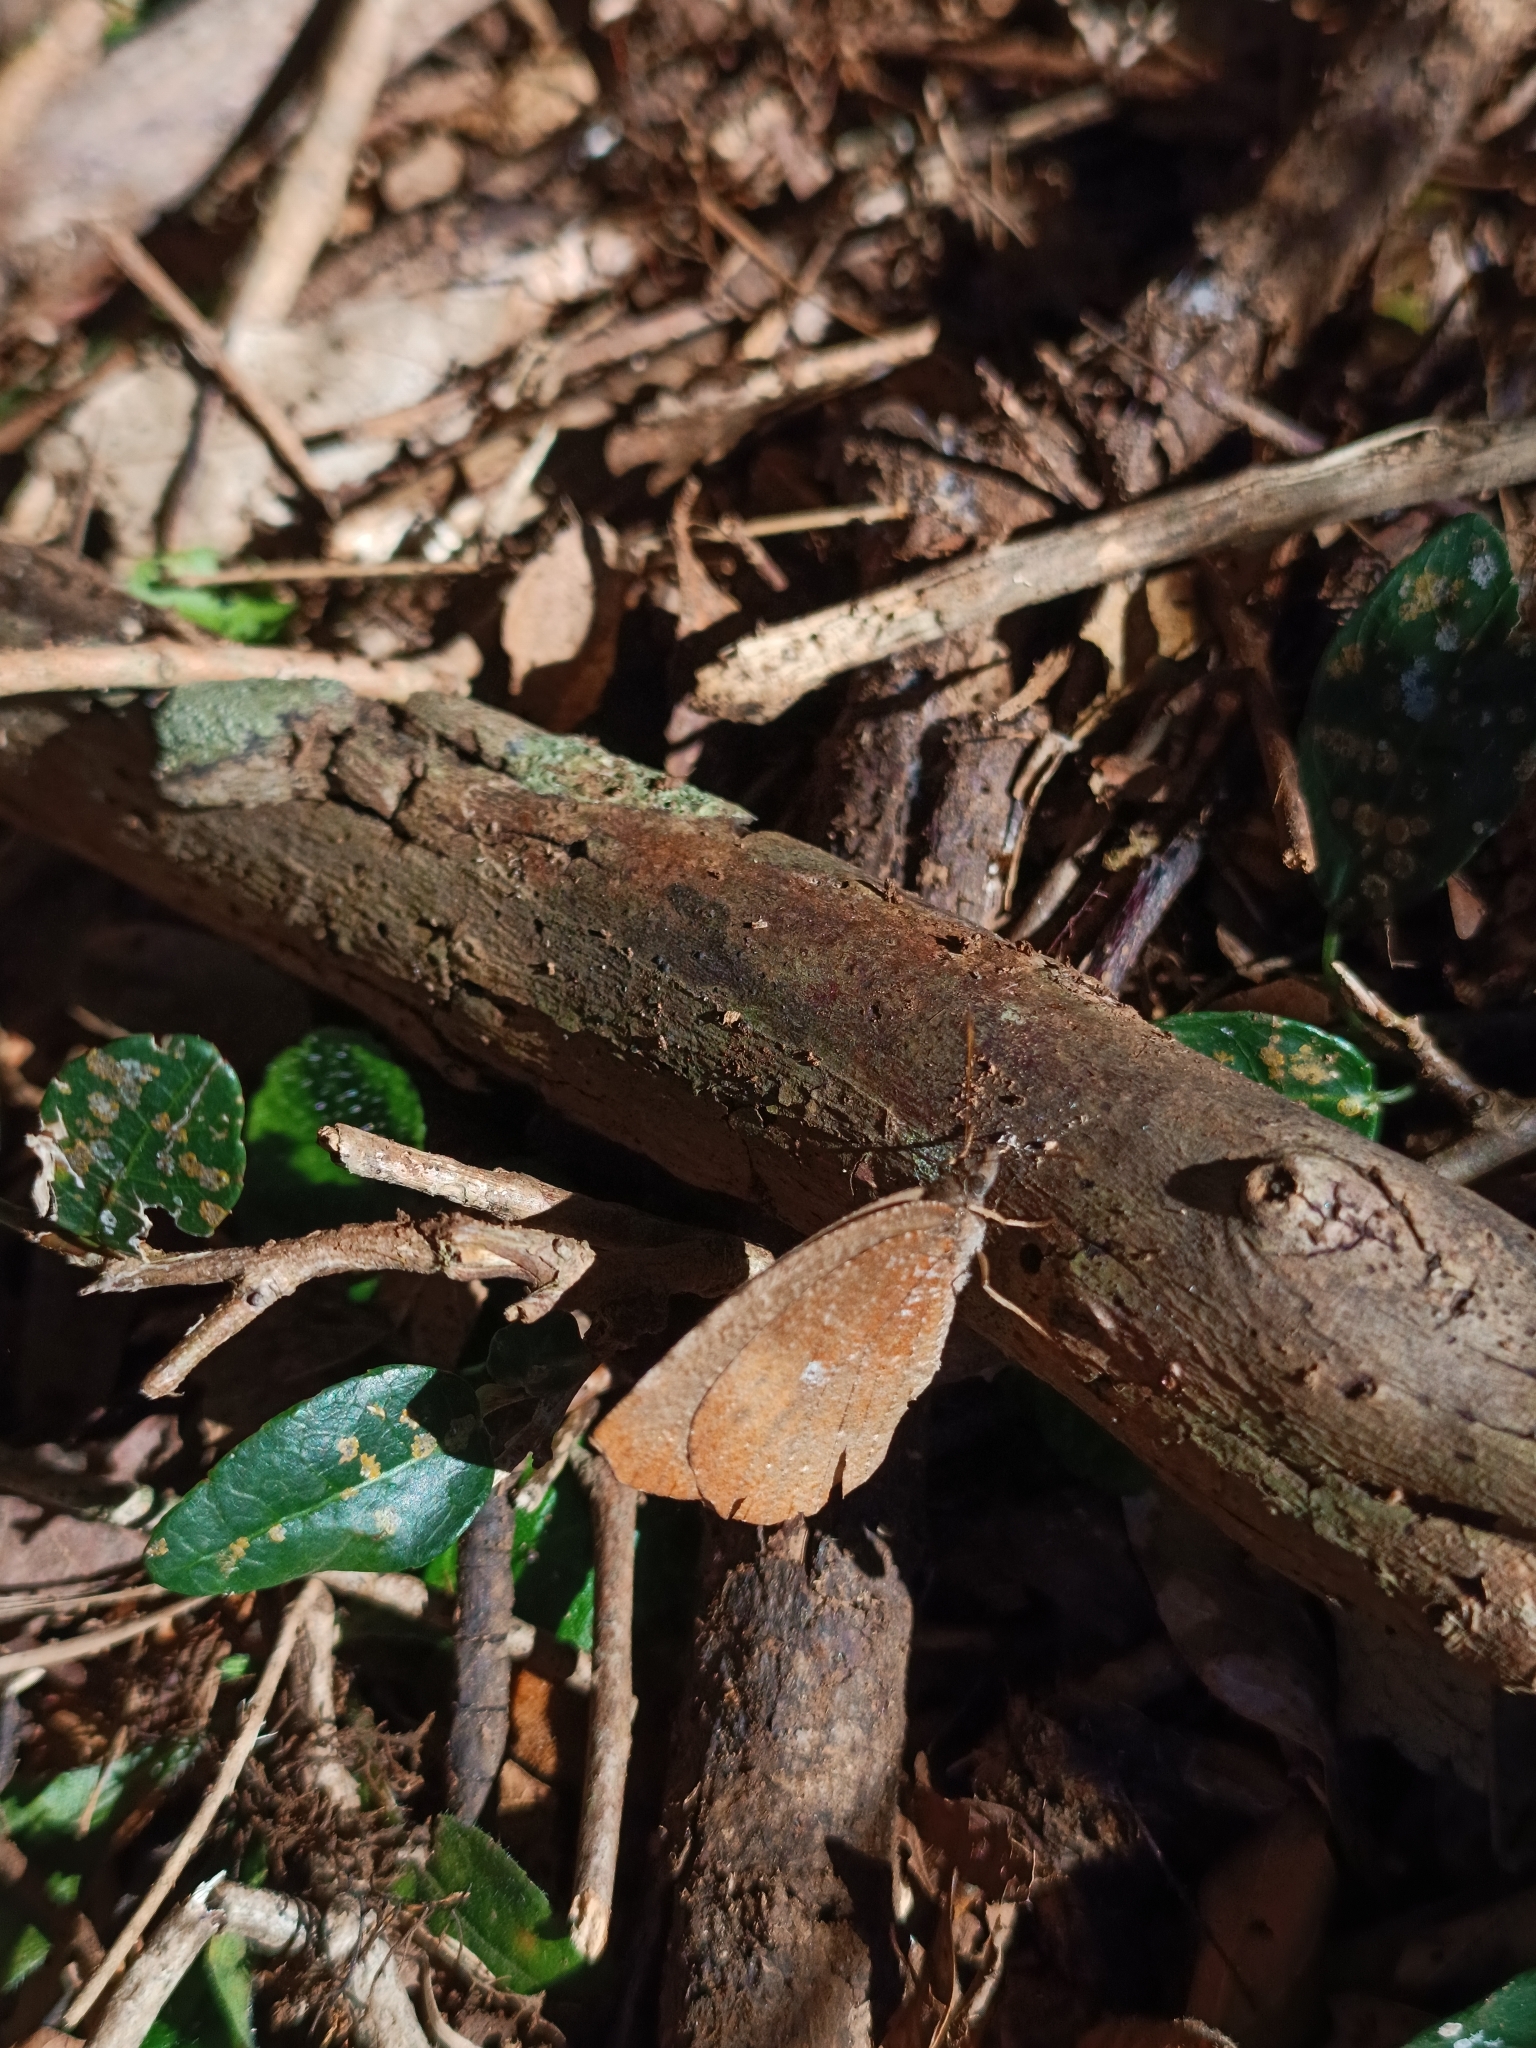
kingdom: Animalia
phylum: Arthropoda
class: Insecta
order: Lepidoptera
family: Nymphalidae
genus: Godartiana
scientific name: Godartiana muscosa
